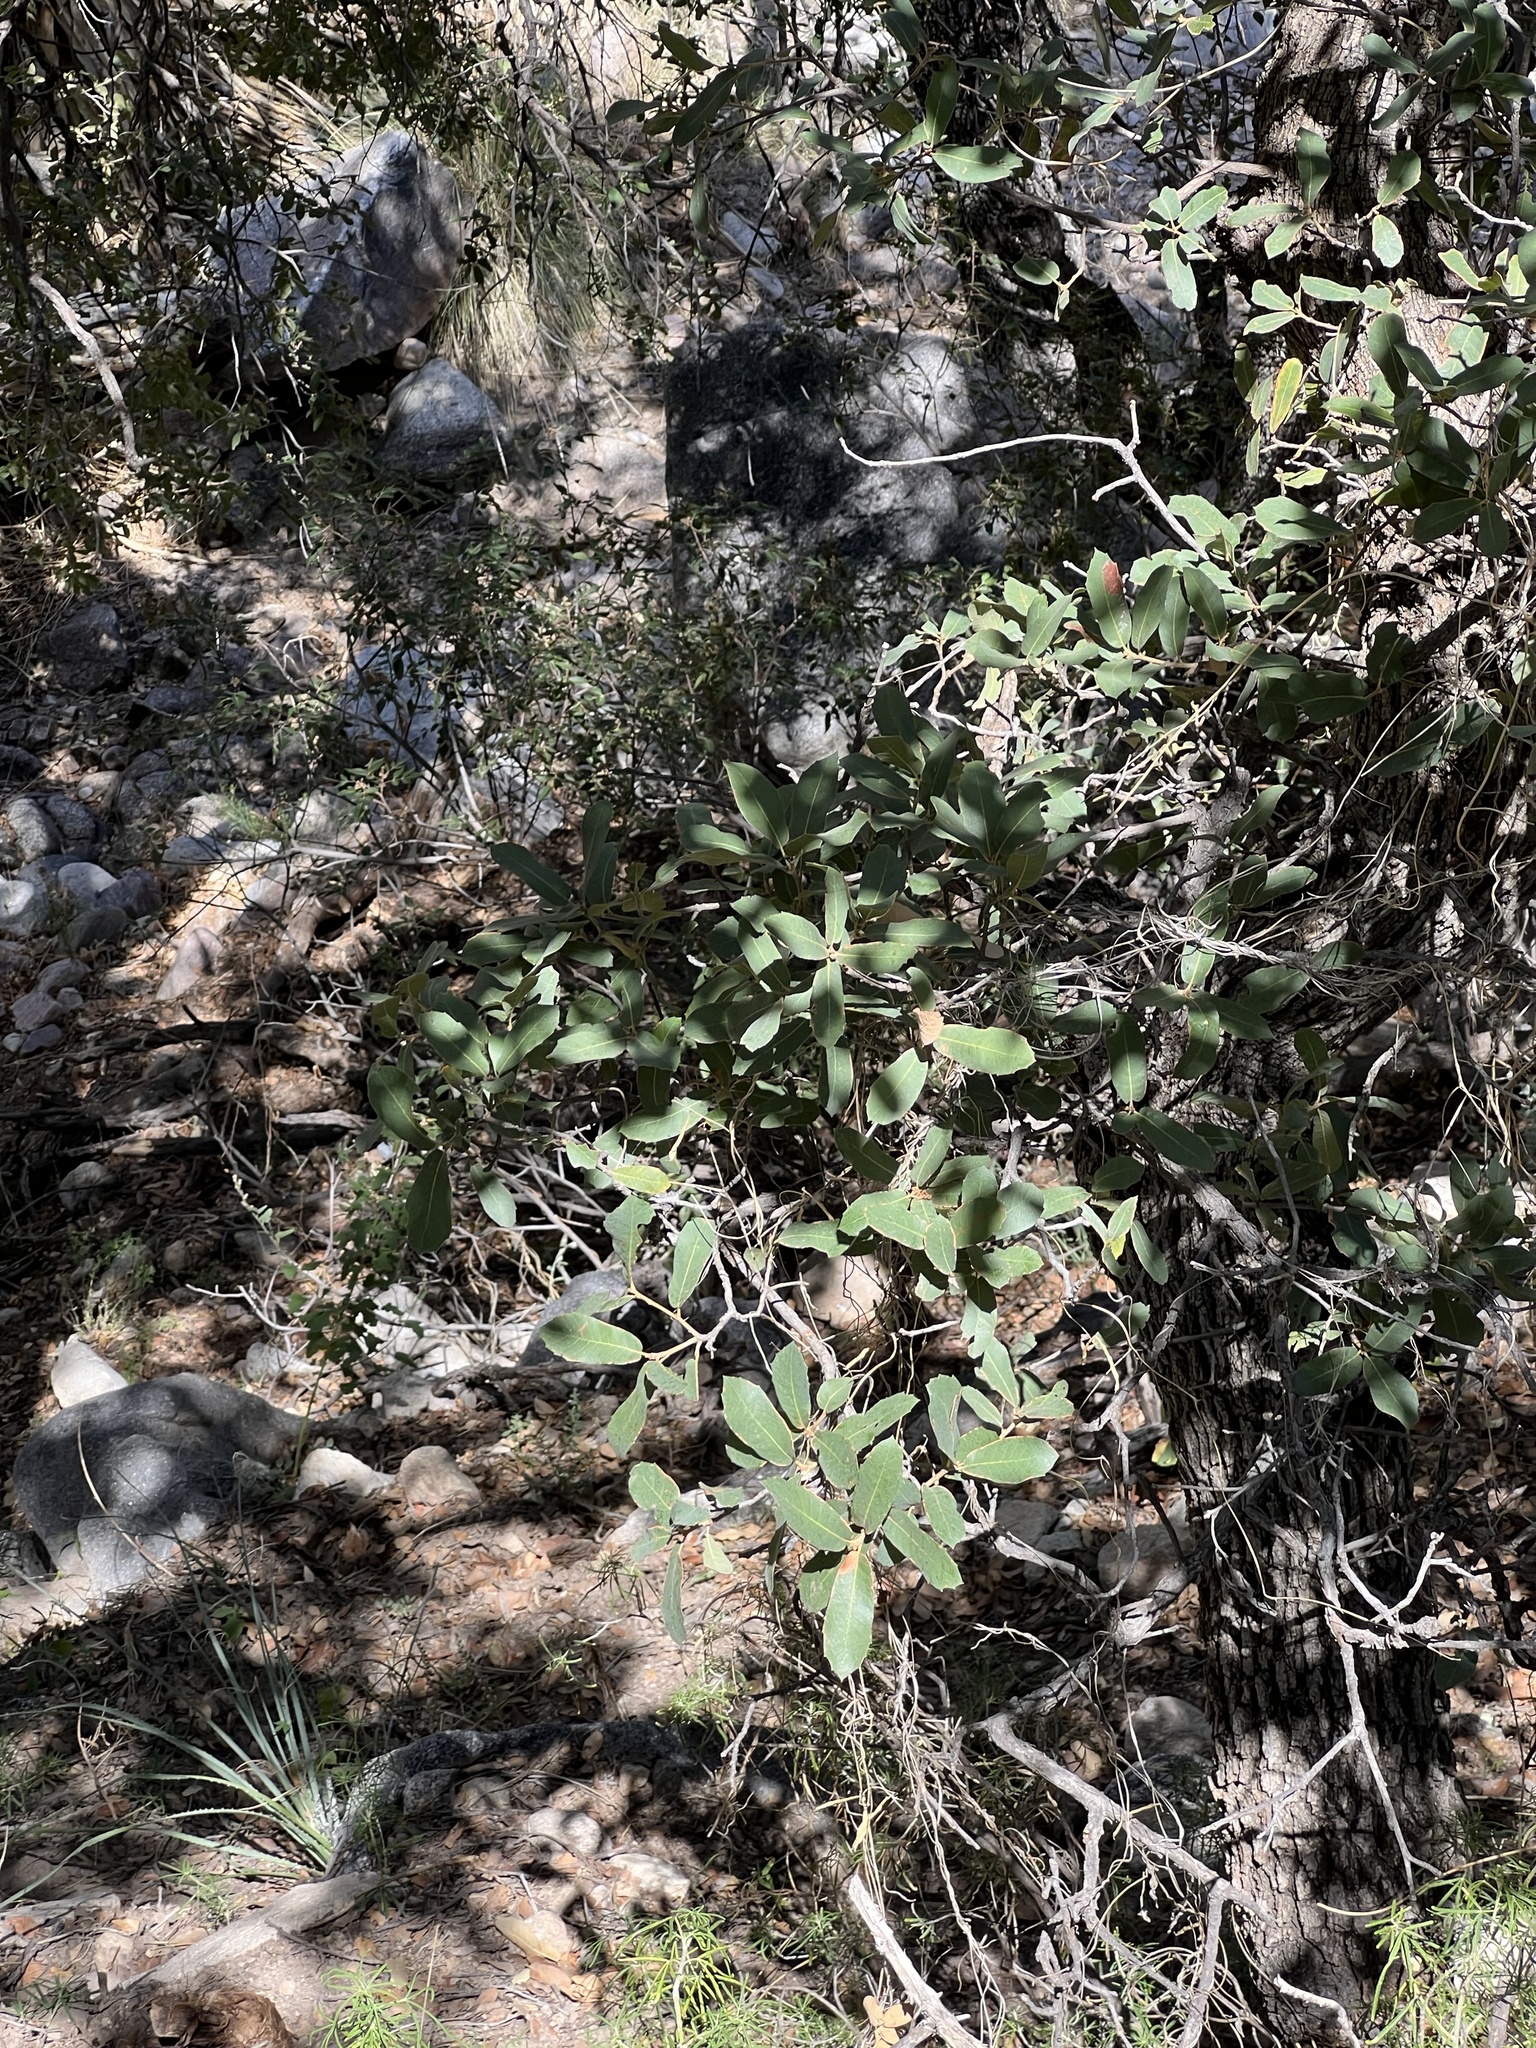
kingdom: Plantae
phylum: Tracheophyta
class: Magnoliopsida
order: Fagales
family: Fagaceae
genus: Quercus
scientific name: Quercus arizonica
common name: Arizona white oak
